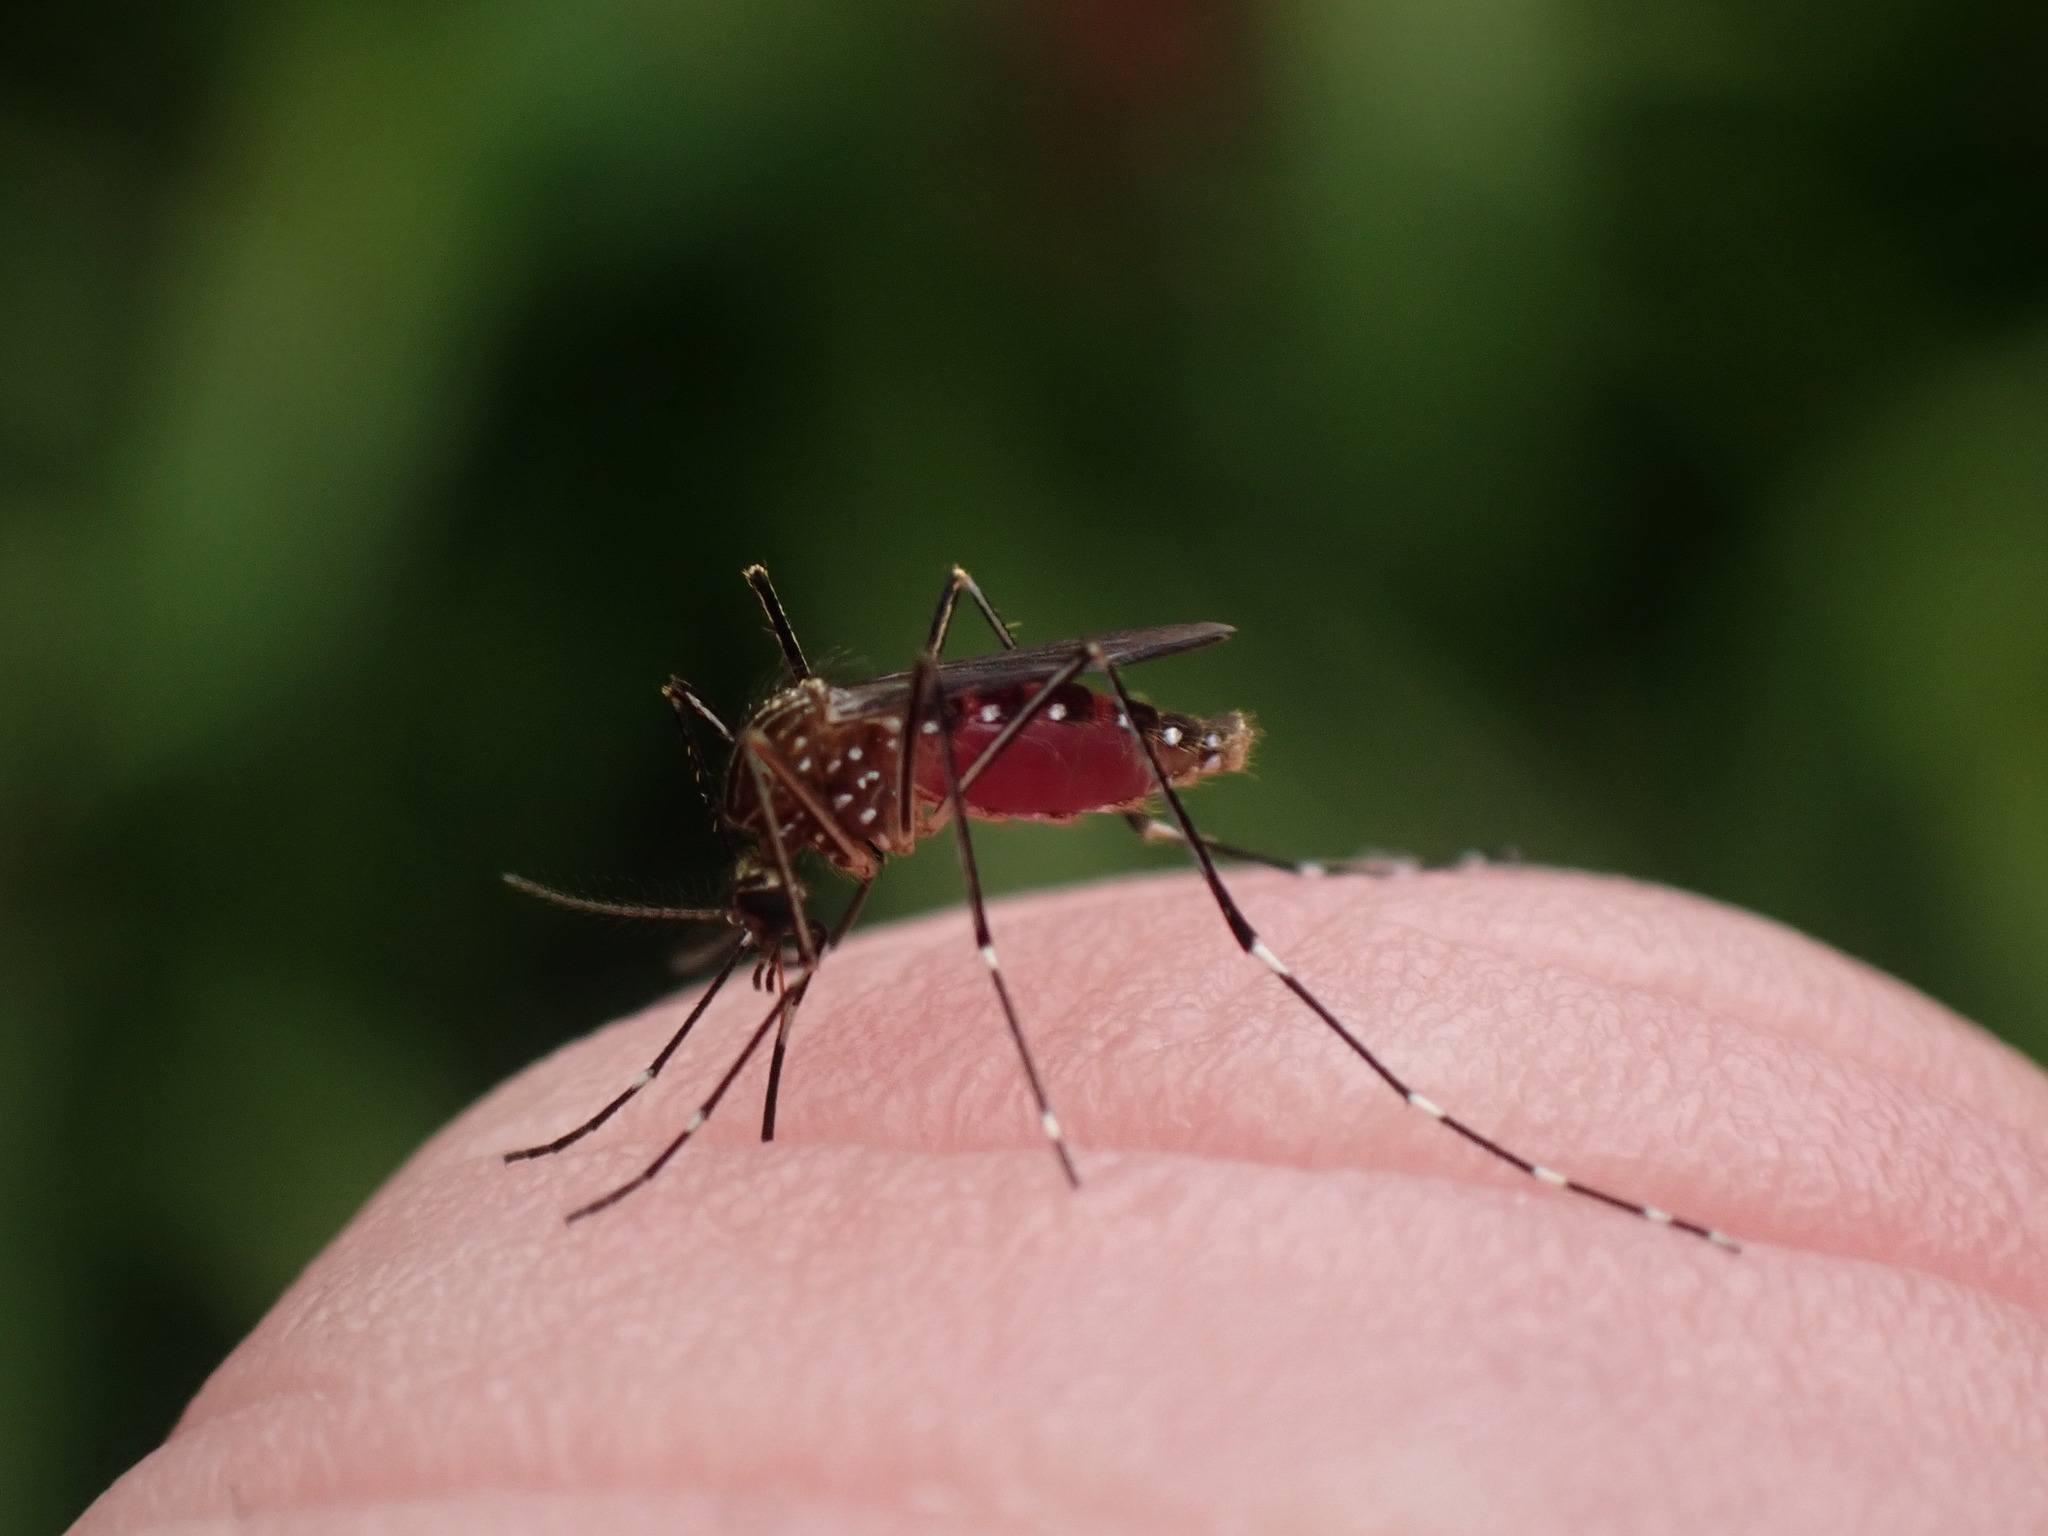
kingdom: Animalia
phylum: Arthropoda
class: Insecta
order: Diptera
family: Culicidae
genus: Aedes
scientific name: Aedes notoscriptus
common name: Australian backyard mosquito
